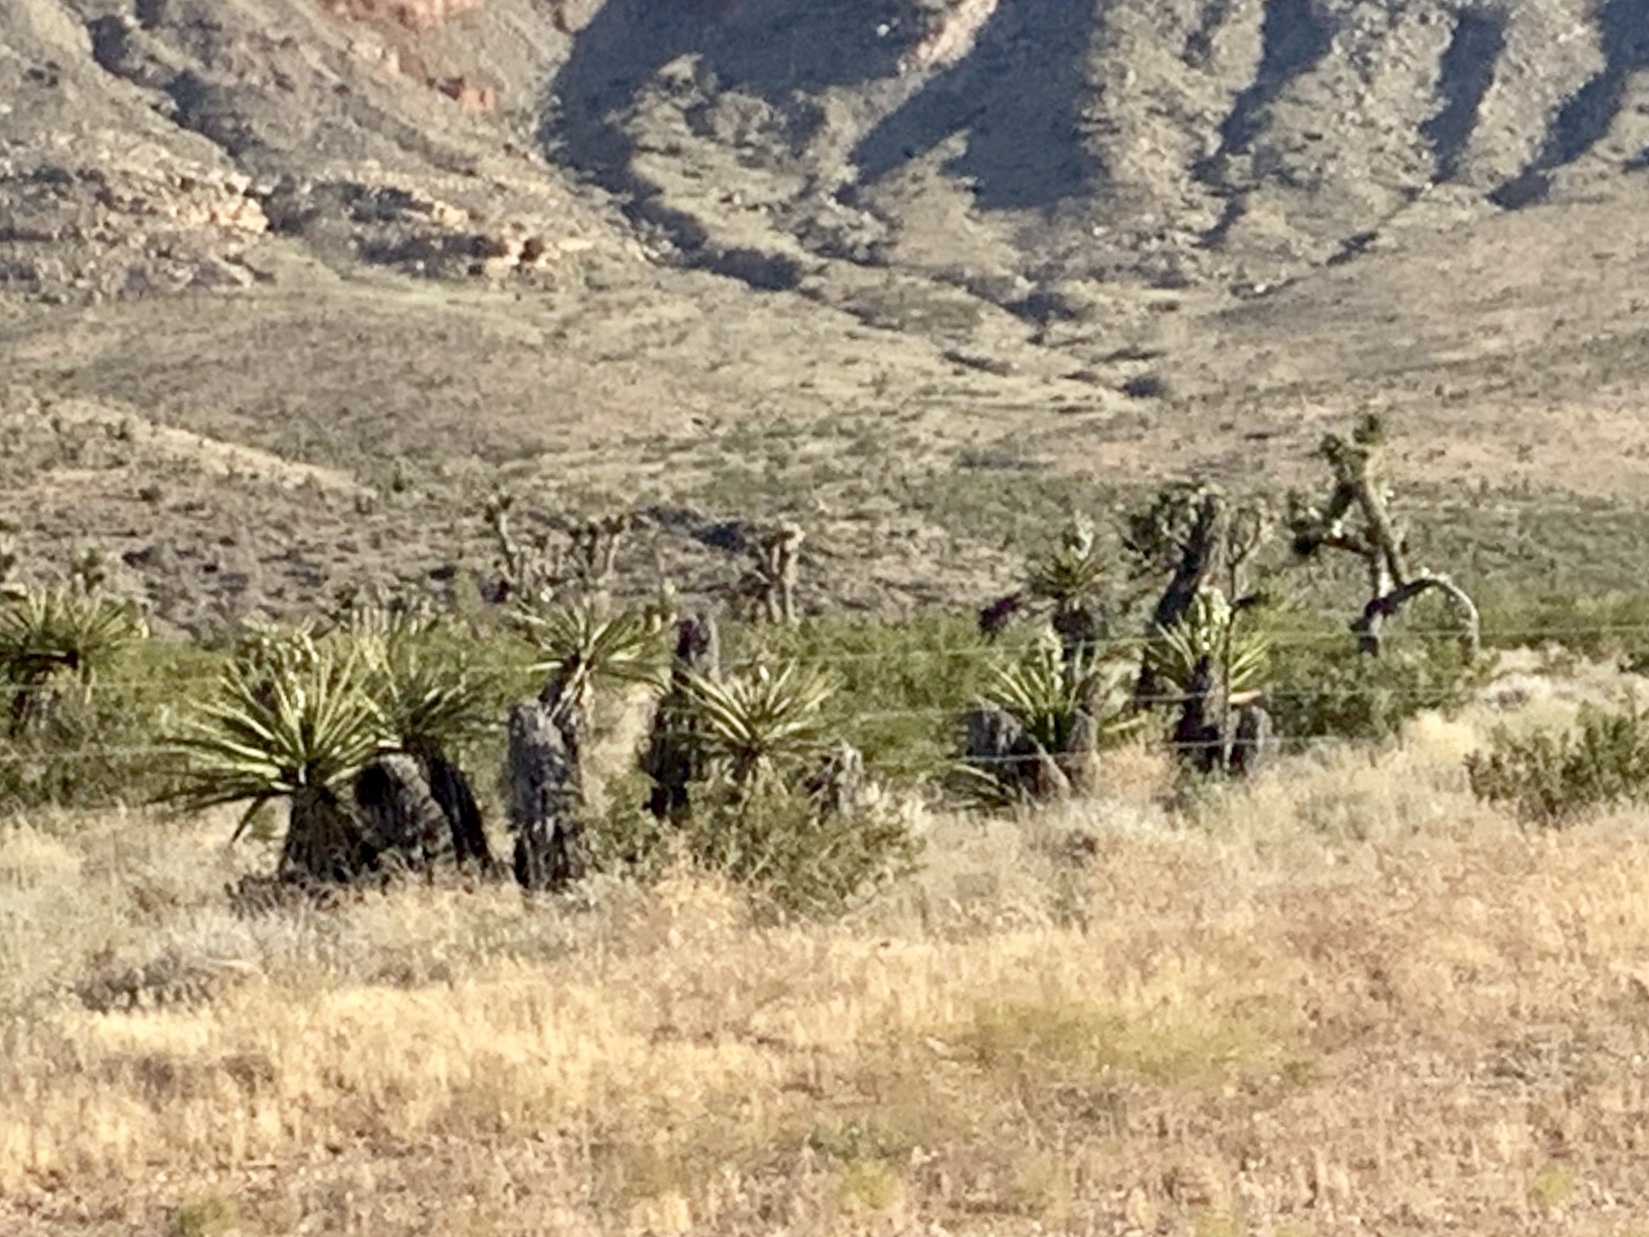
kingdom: Plantae
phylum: Tracheophyta
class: Liliopsida
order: Asparagales
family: Asparagaceae
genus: Yucca
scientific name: Yucca schidigera
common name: Mojave yucca
